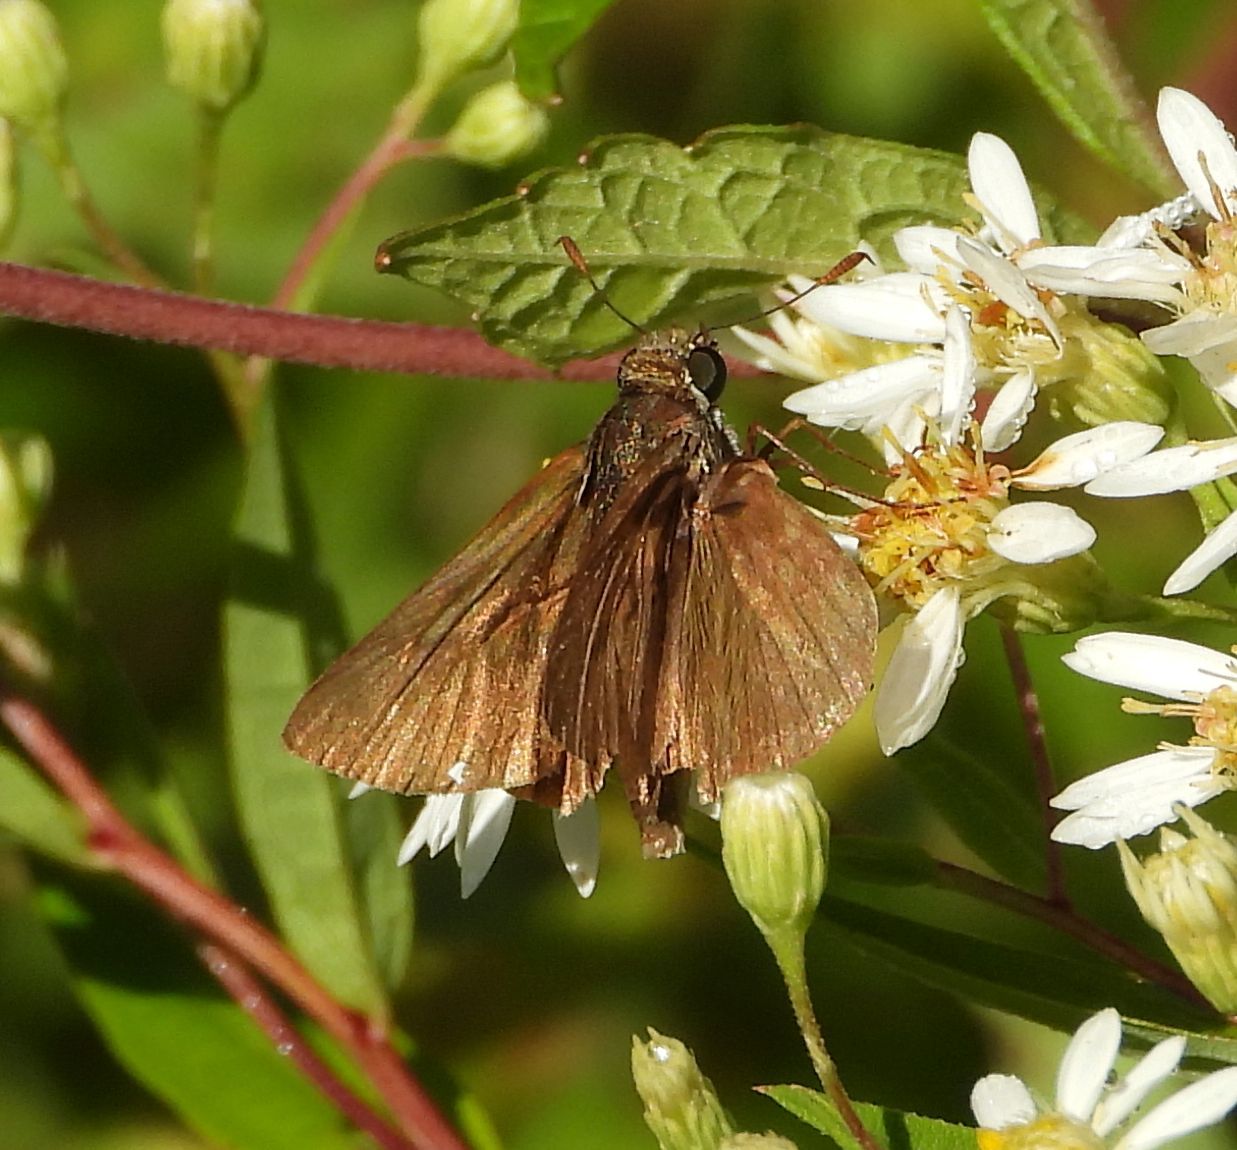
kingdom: Animalia
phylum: Arthropoda
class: Insecta
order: Lepidoptera
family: Hesperiidae
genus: Euphyes
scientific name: Euphyes vestris
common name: Dun skipper
